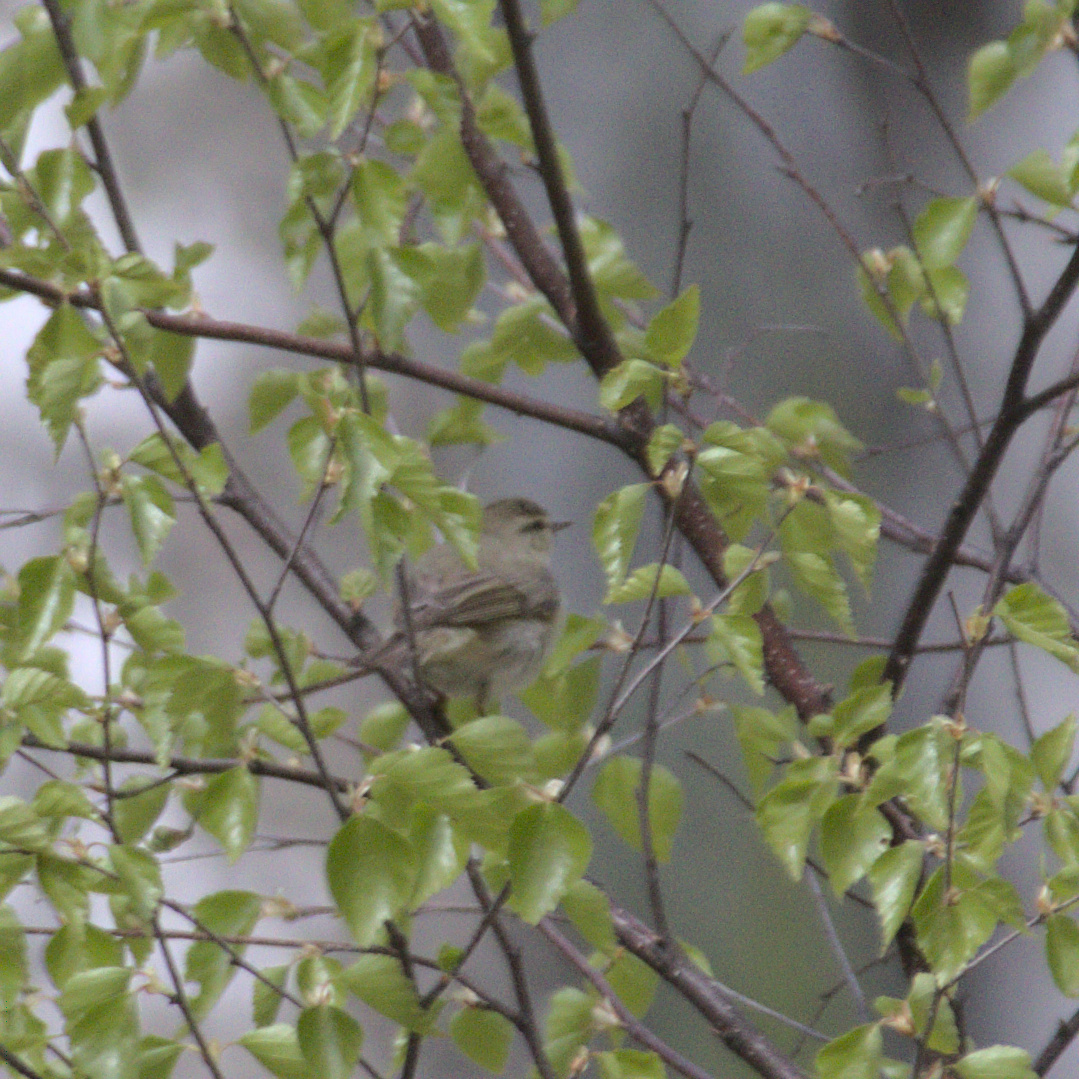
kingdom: Animalia
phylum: Chordata
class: Aves
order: Passeriformes
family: Phylloscopidae
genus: Phylloscopus
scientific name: Phylloscopus trochilus
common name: Willow warbler
